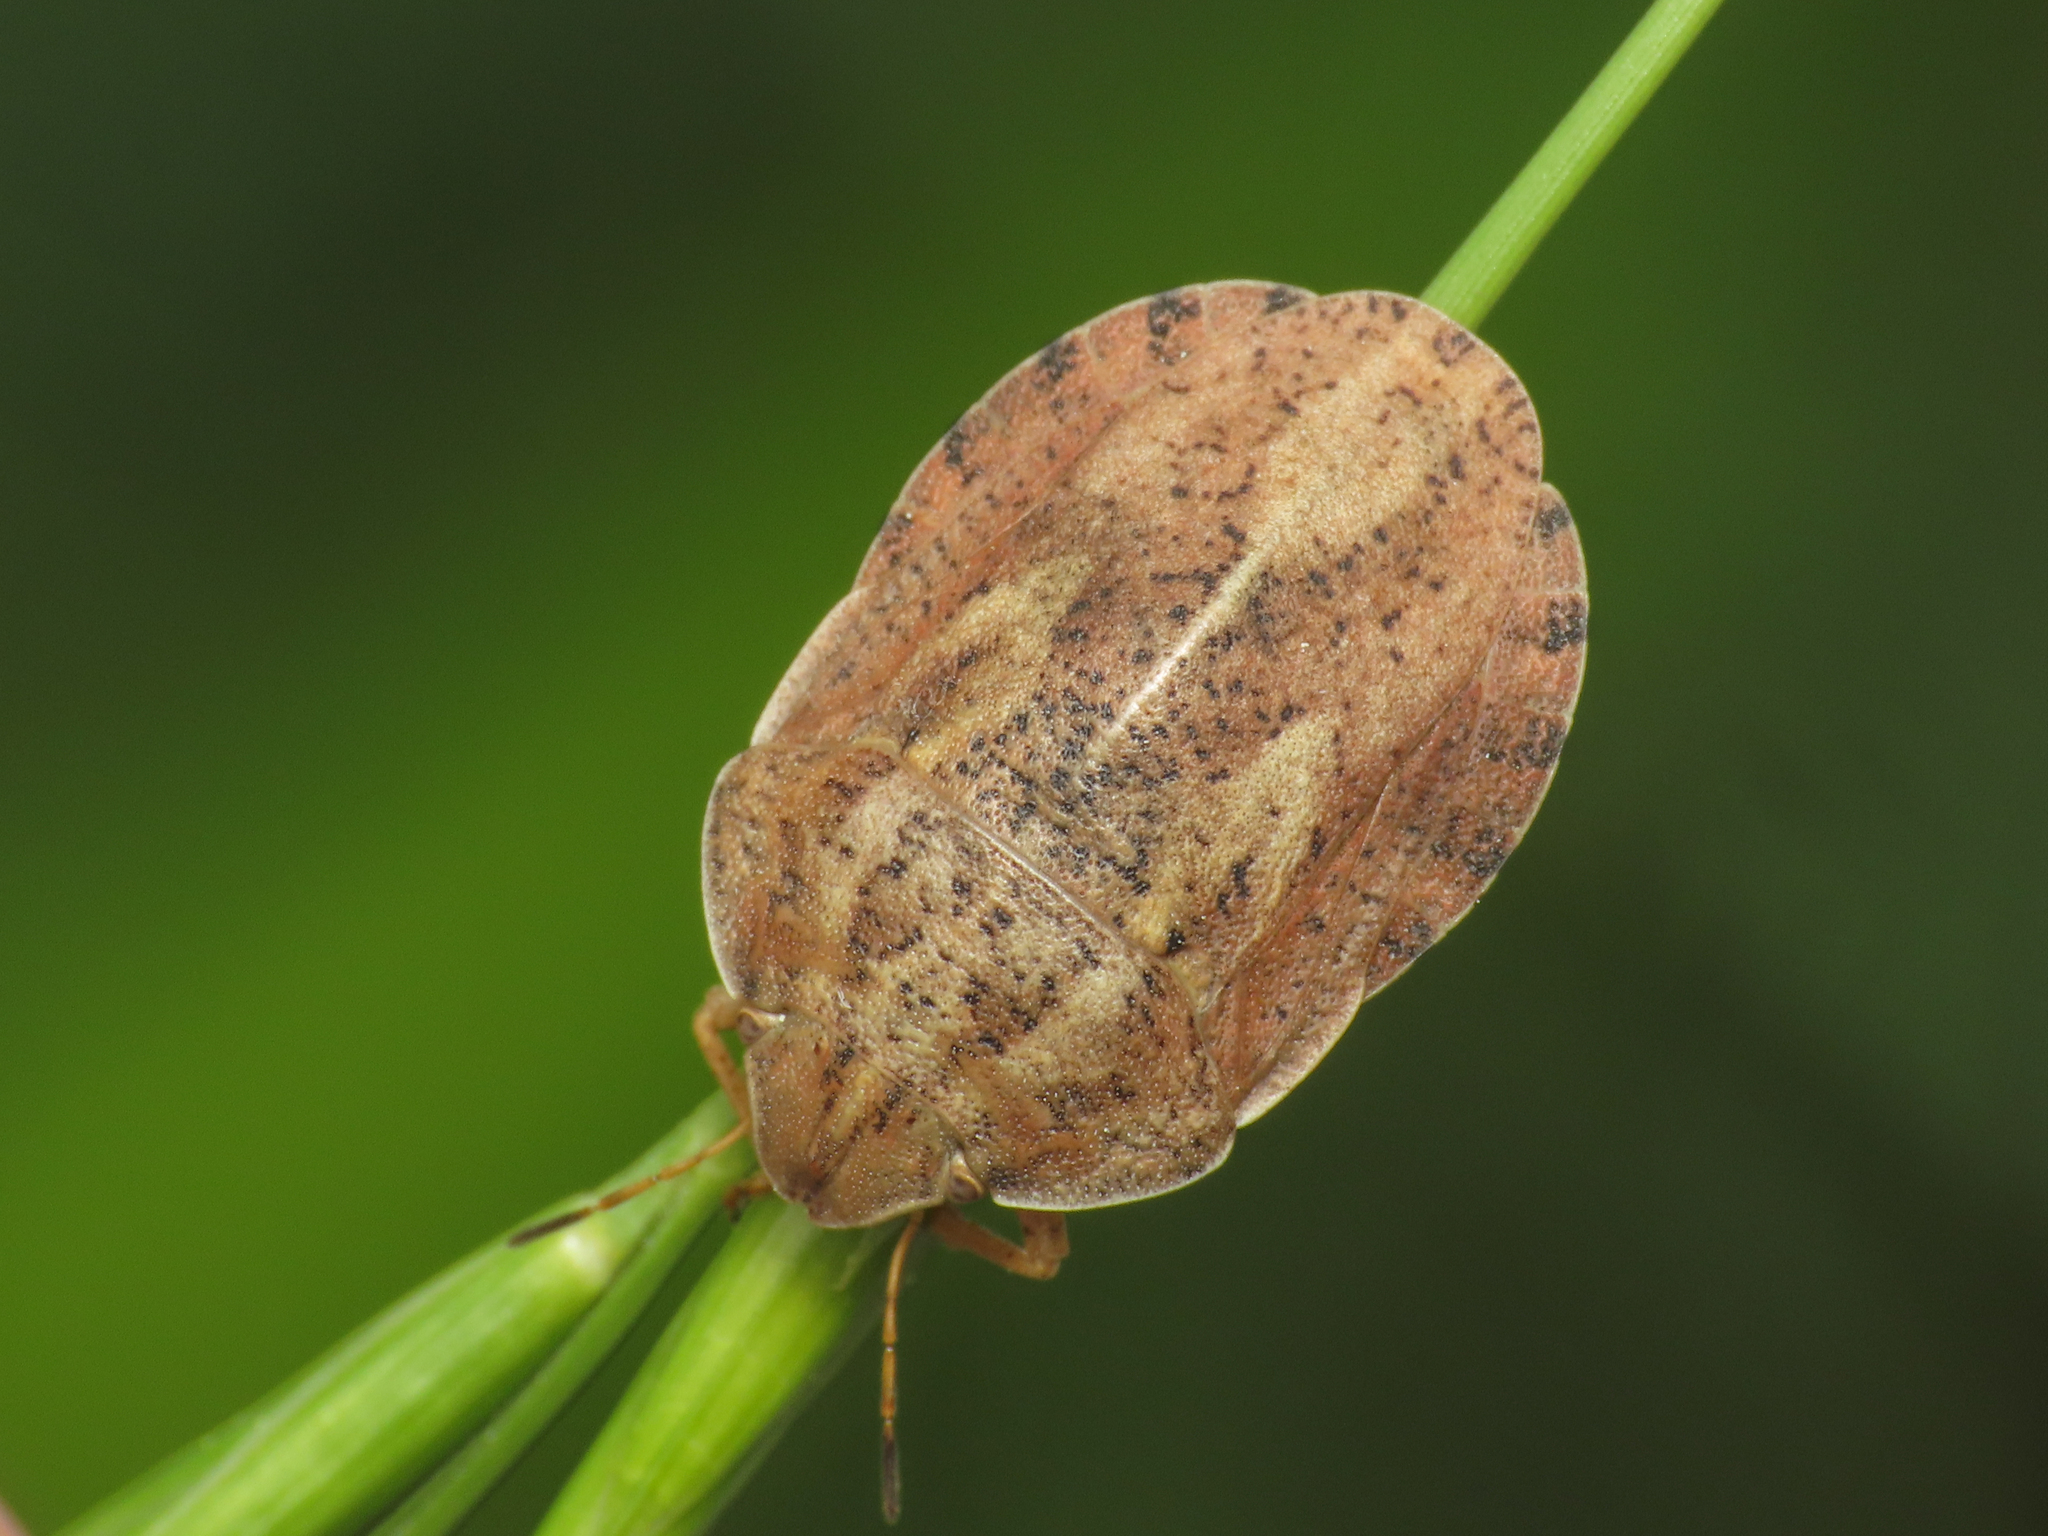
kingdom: Animalia
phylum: Arthropoda
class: Insecta
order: Hemiptera
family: Scutelleridae
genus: Eurygaster
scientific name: Eurygaster austriaca
